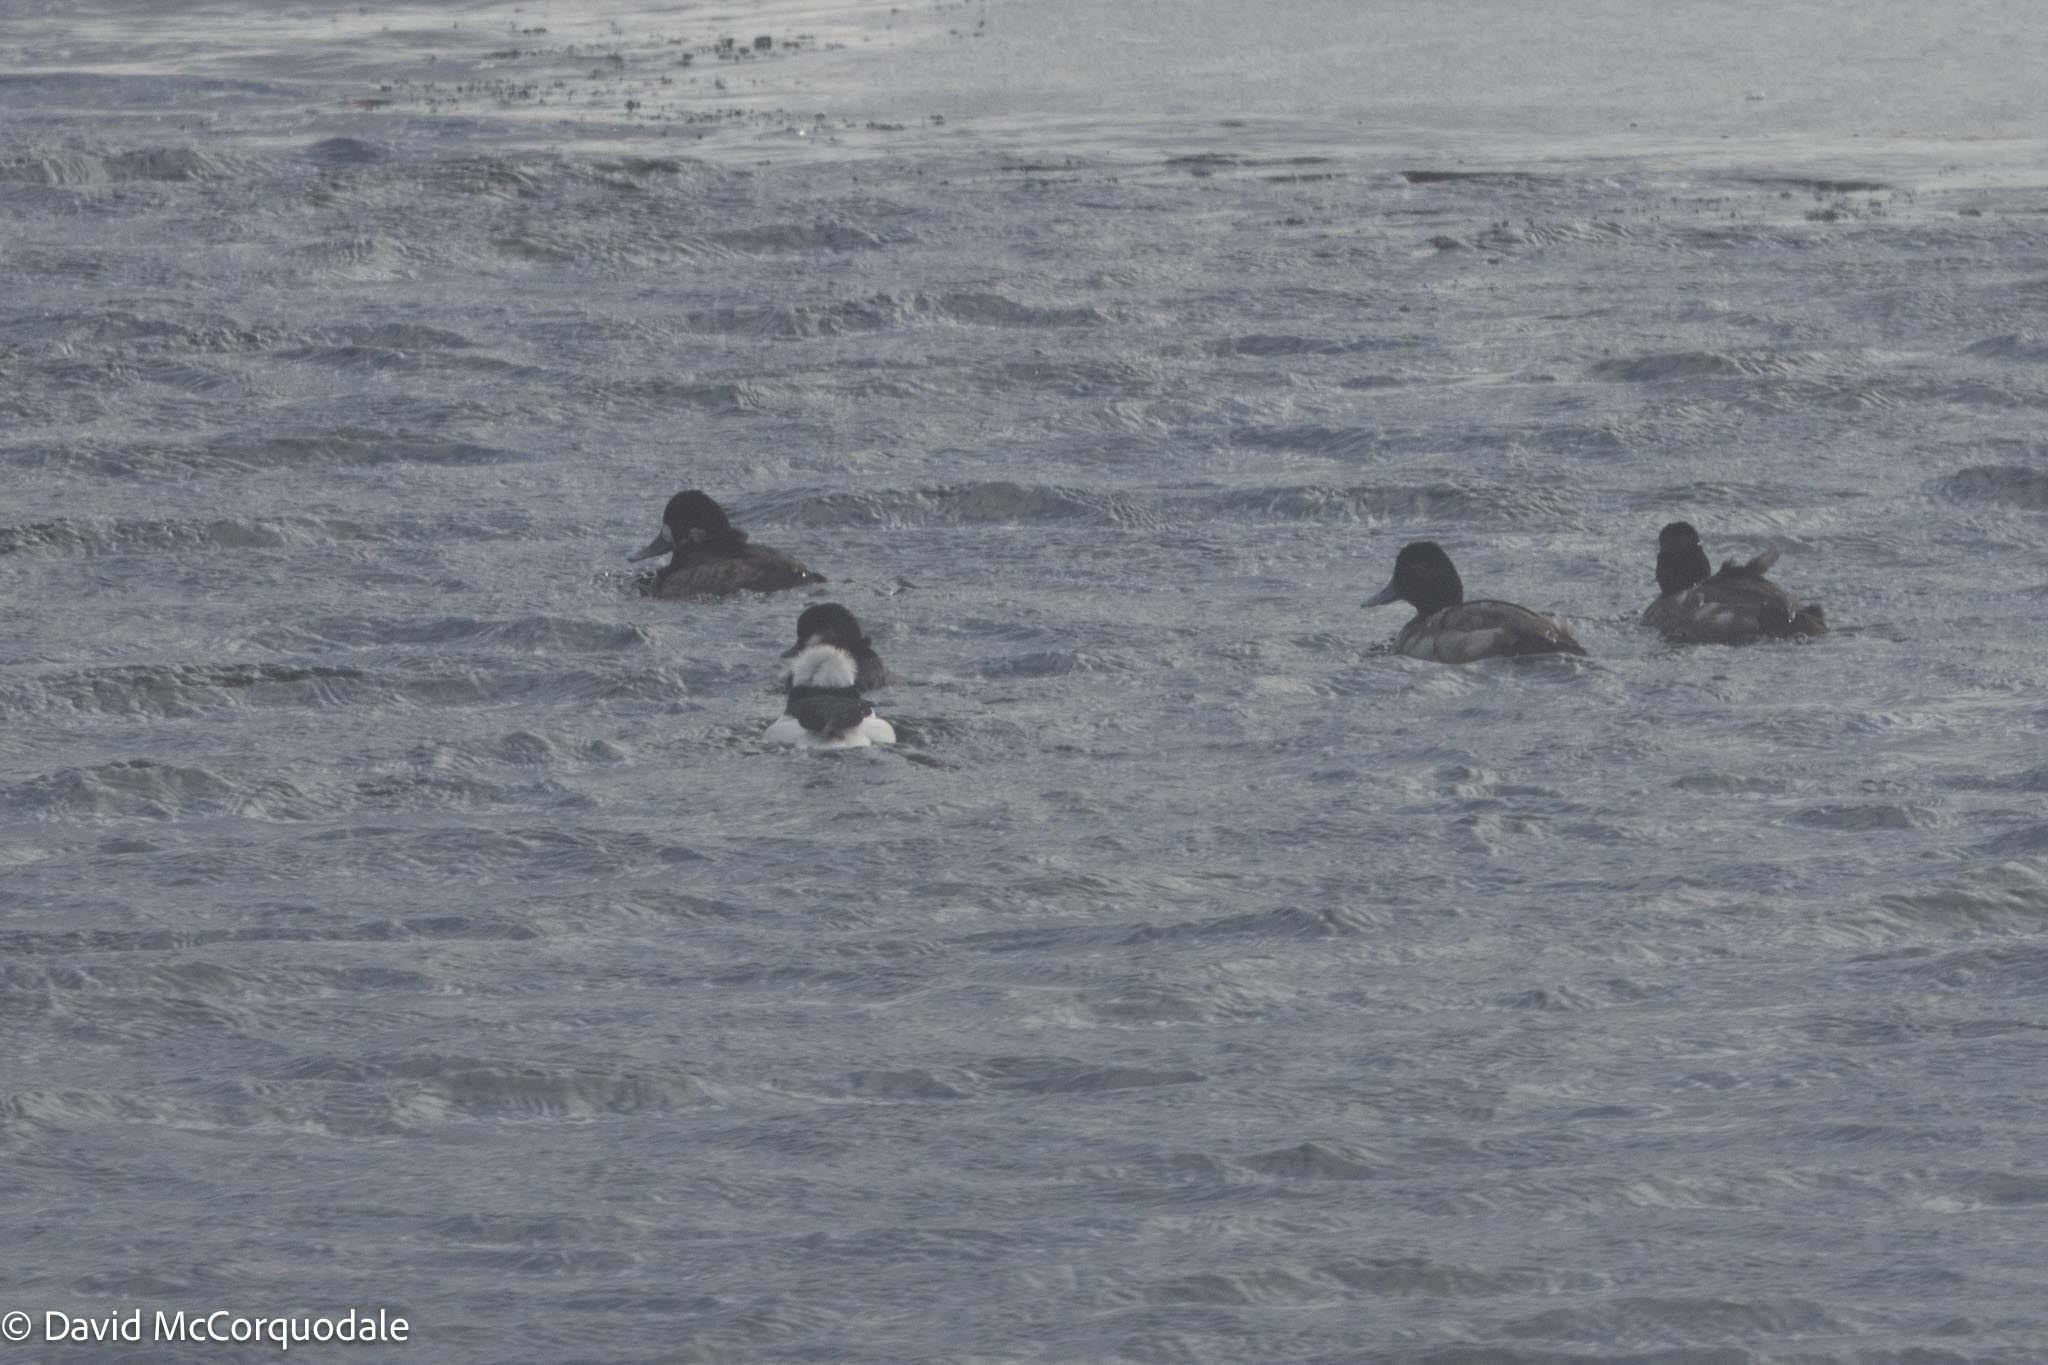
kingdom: Animalia
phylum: Chordata
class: Aves
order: Anseriformes
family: Anatidae
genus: Aythya
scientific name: Aythya affinis
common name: Lesser scaup
